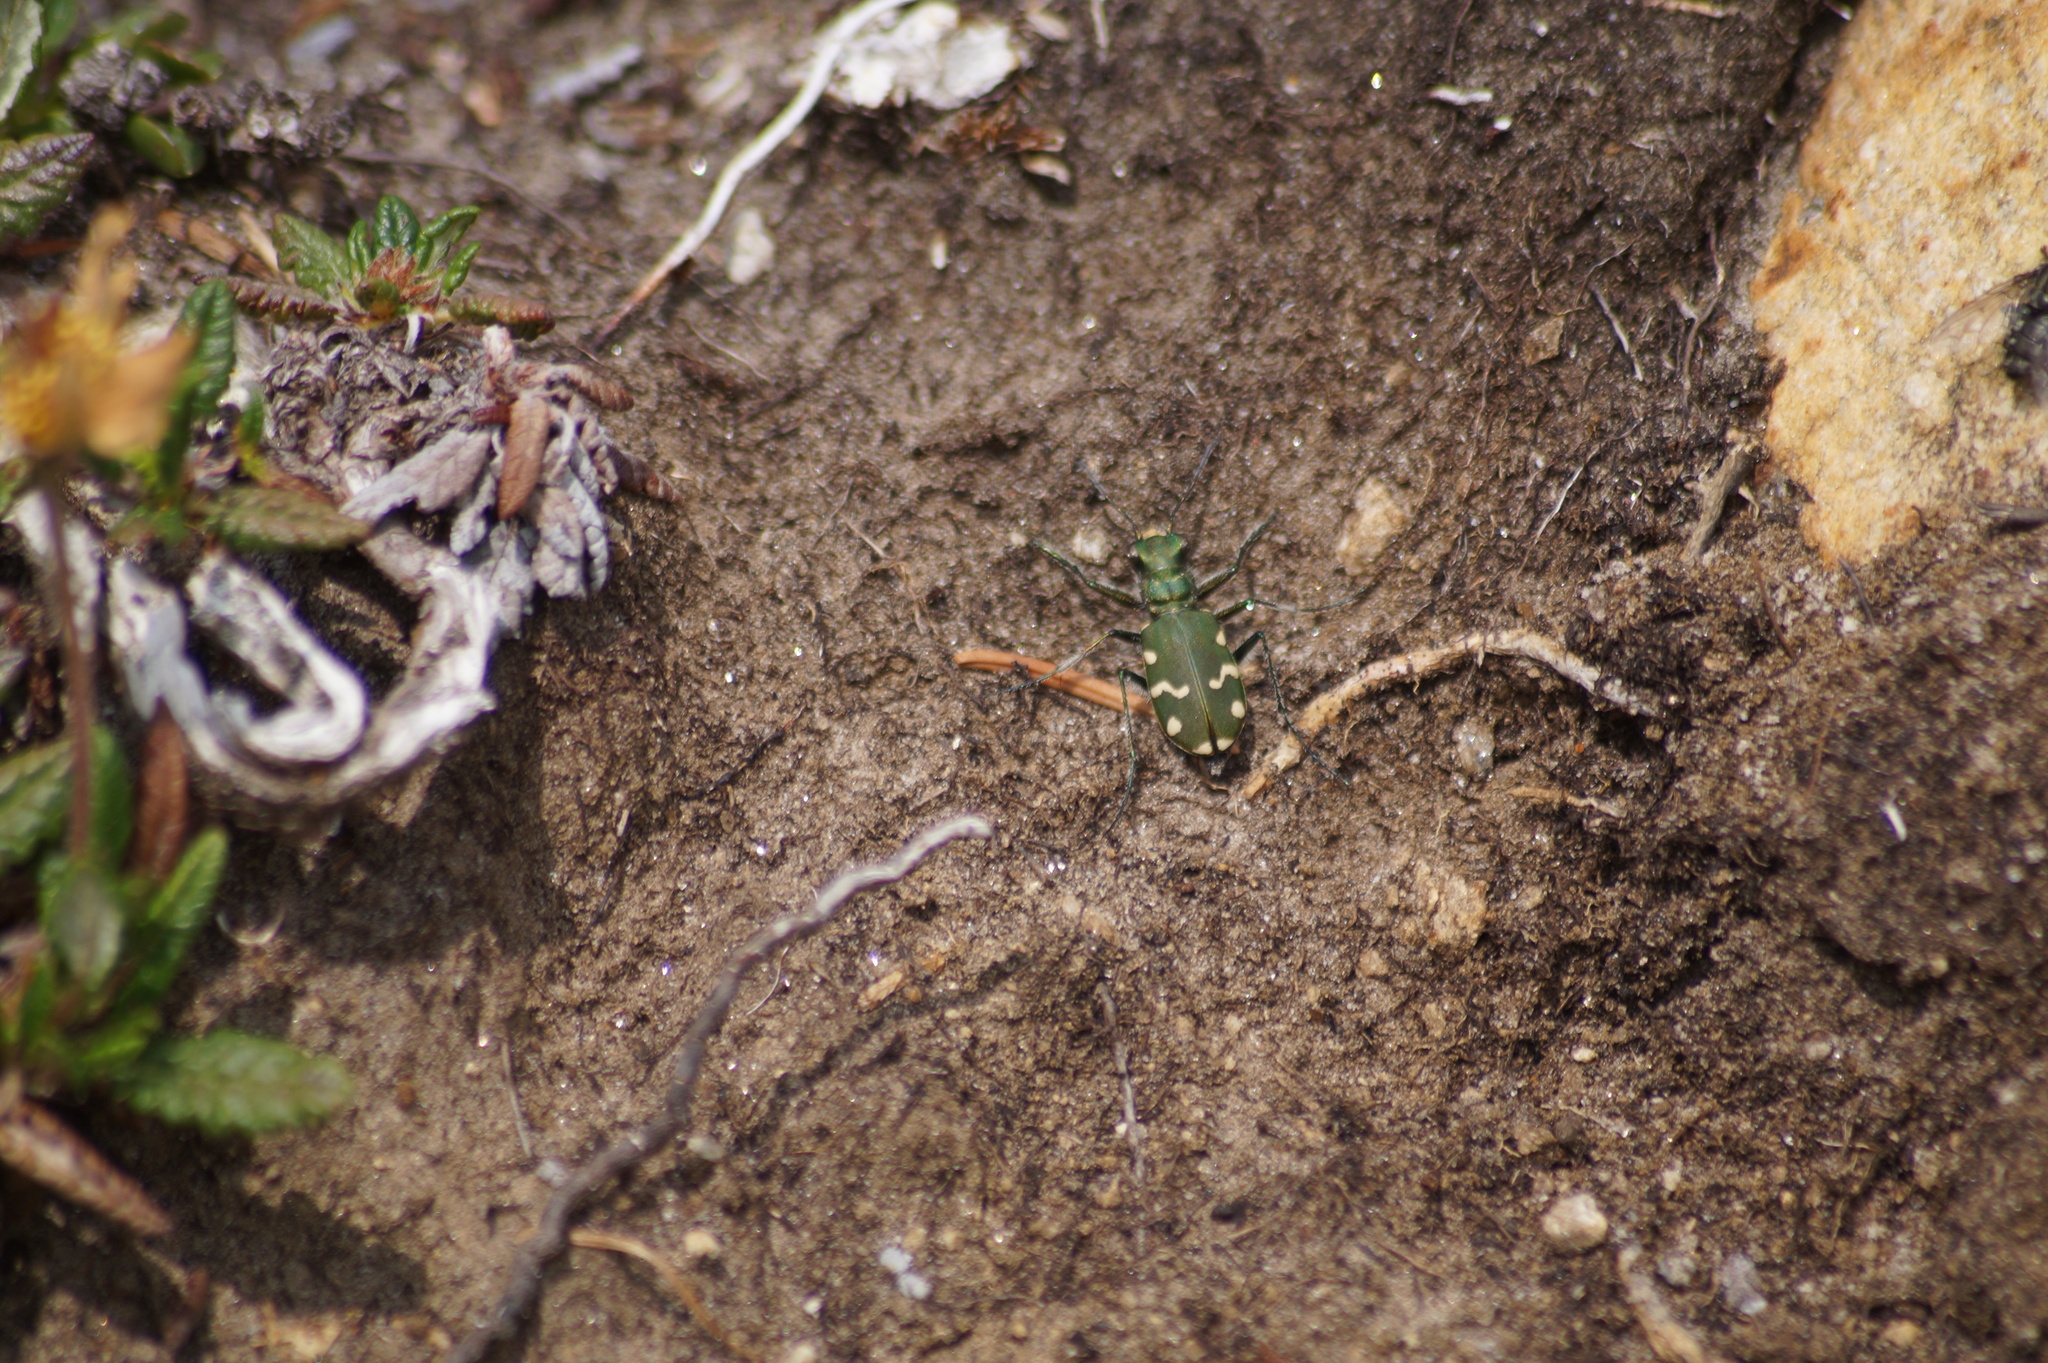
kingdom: Animalia
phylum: Arthropoda
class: Insecta
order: Coleoptera
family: Carabidae
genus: Cicindela
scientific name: Cicindela gallica
